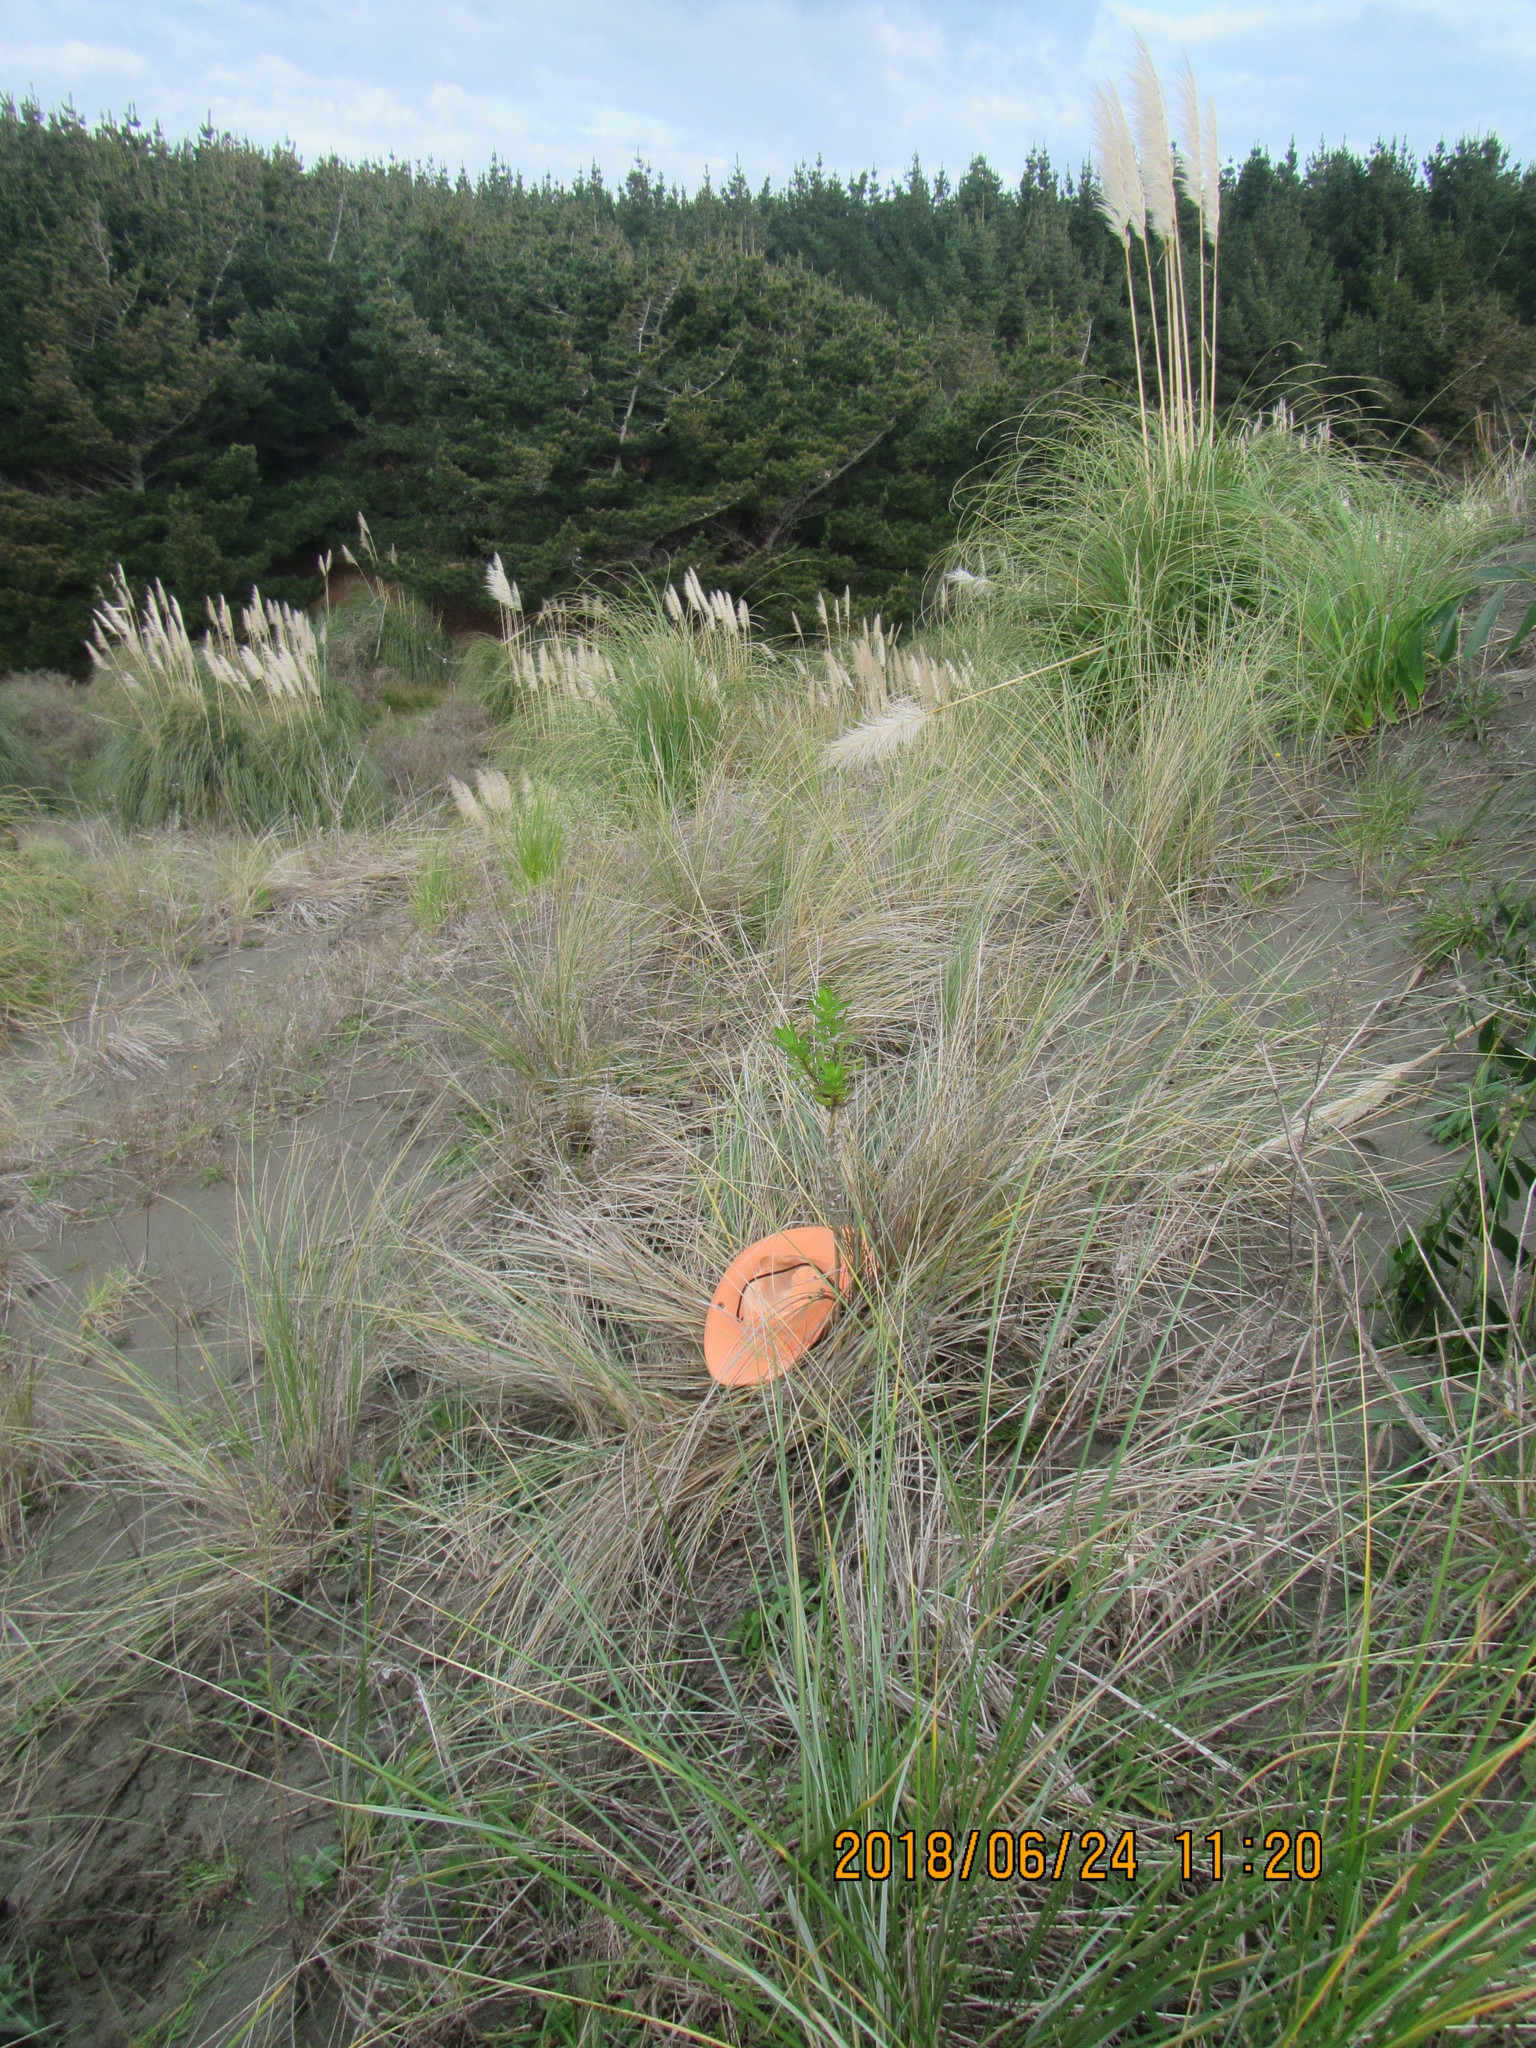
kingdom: Animalia
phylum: Mollusca
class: Gastropoda
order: Stylommatophora
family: Helicidae
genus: Cornu
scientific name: Cornu aspersum
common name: Brown garden snail
